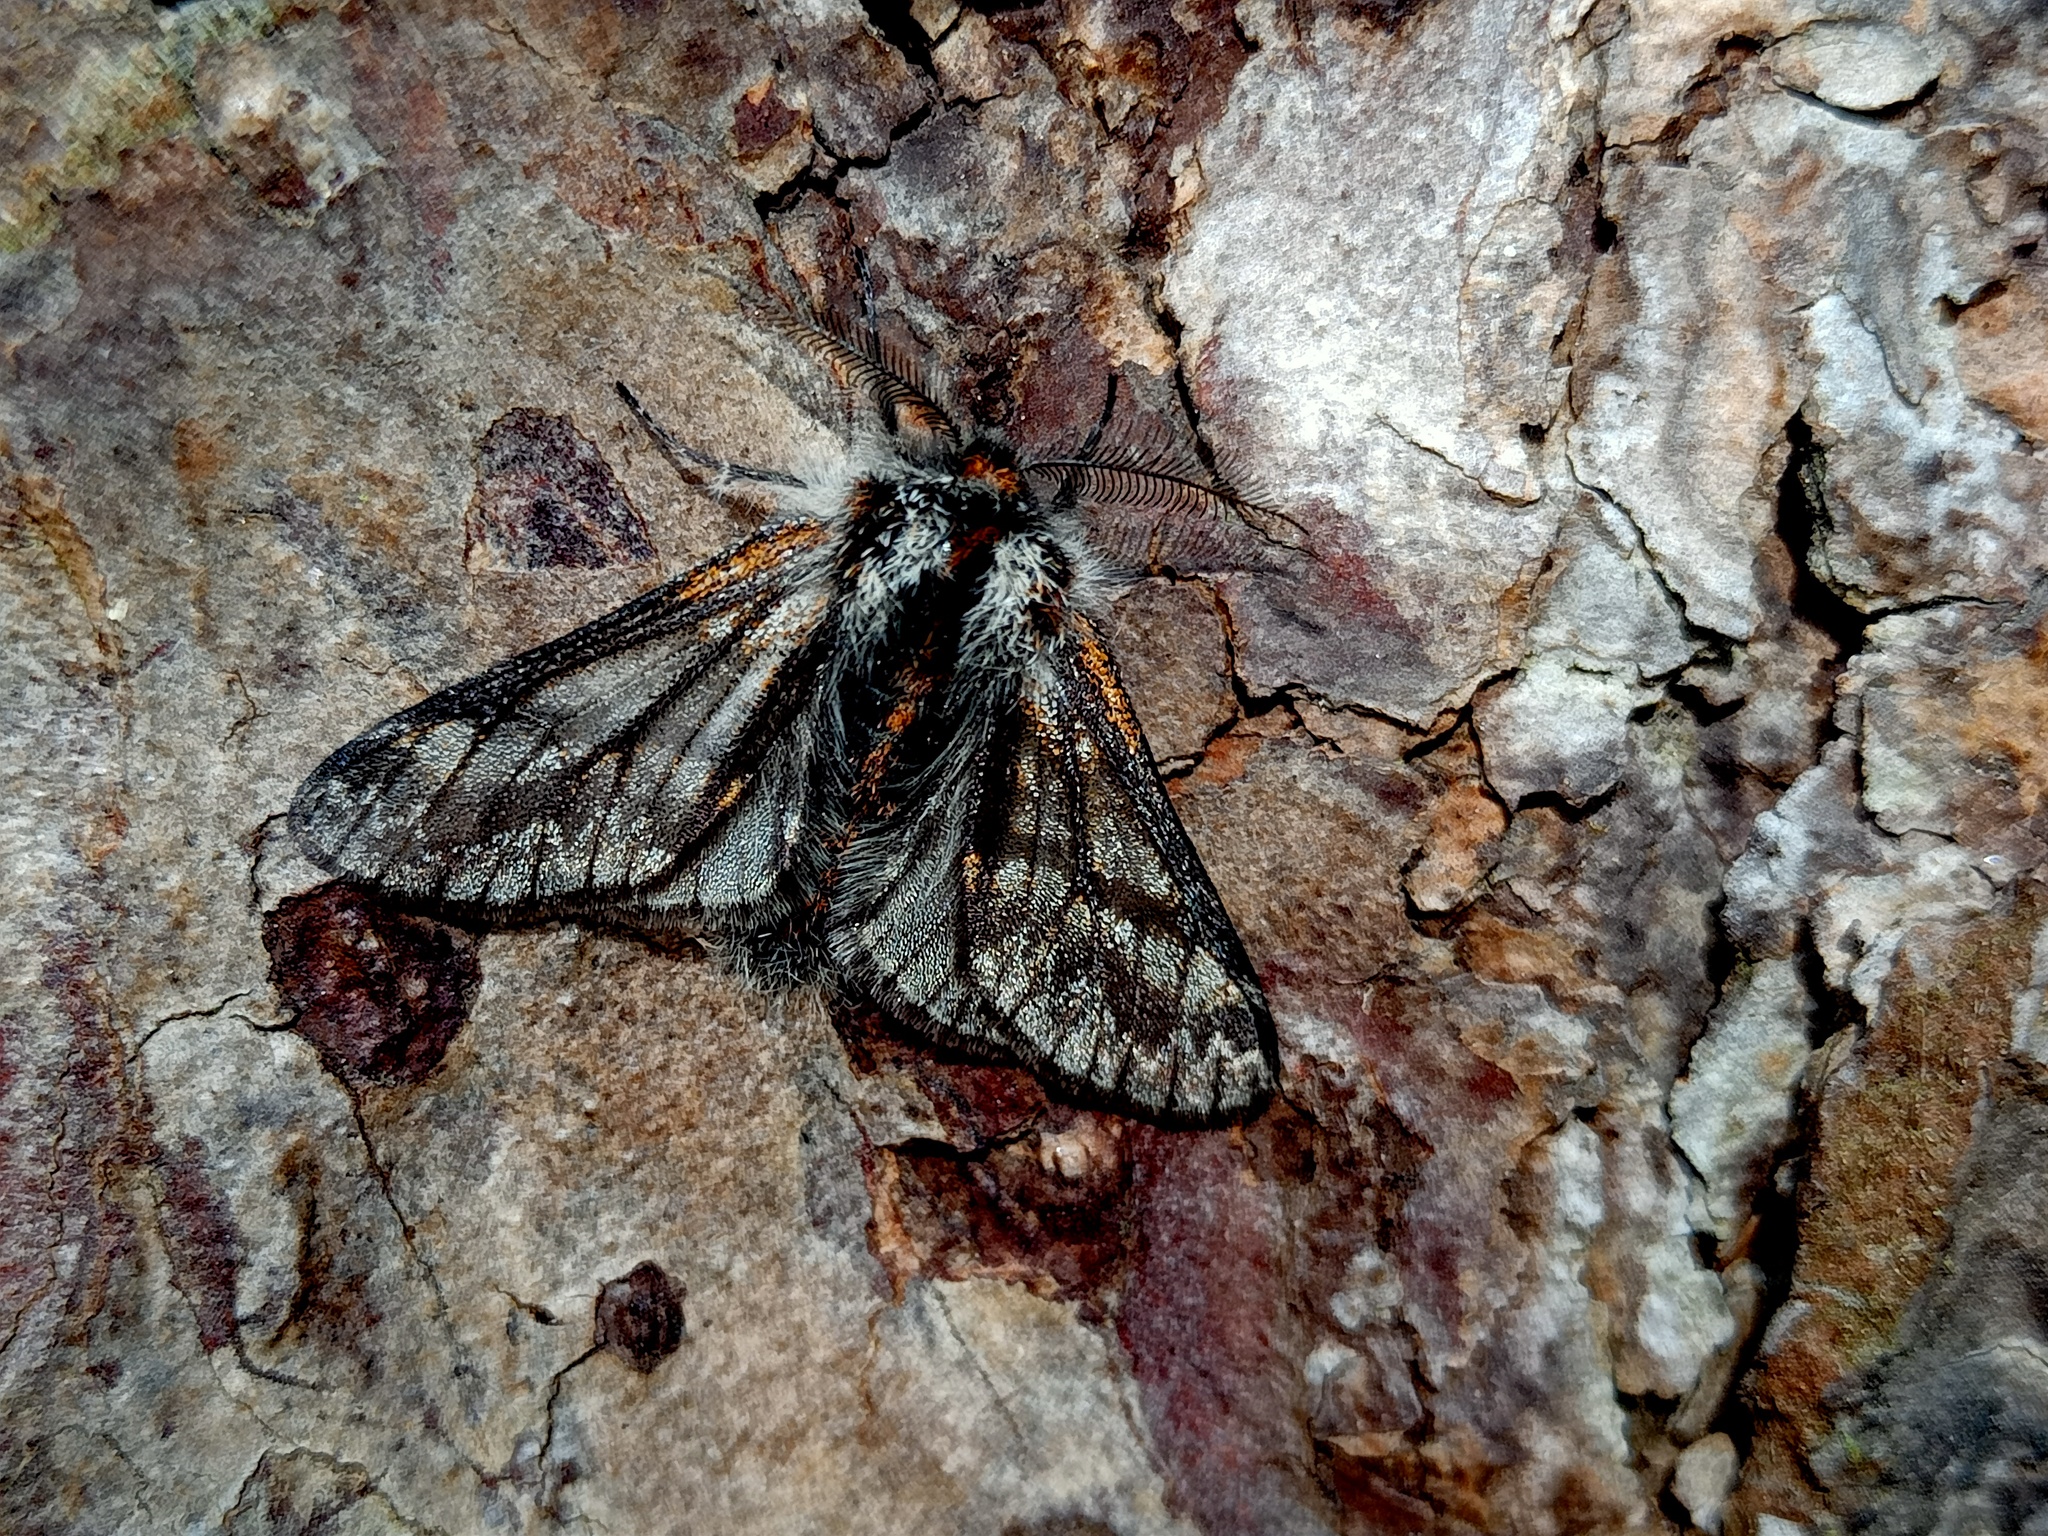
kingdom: Animalia
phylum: Arthropoda
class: Insecta
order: Lepidoptera
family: Geometridae
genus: Lycia
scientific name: Lycia isabellae
